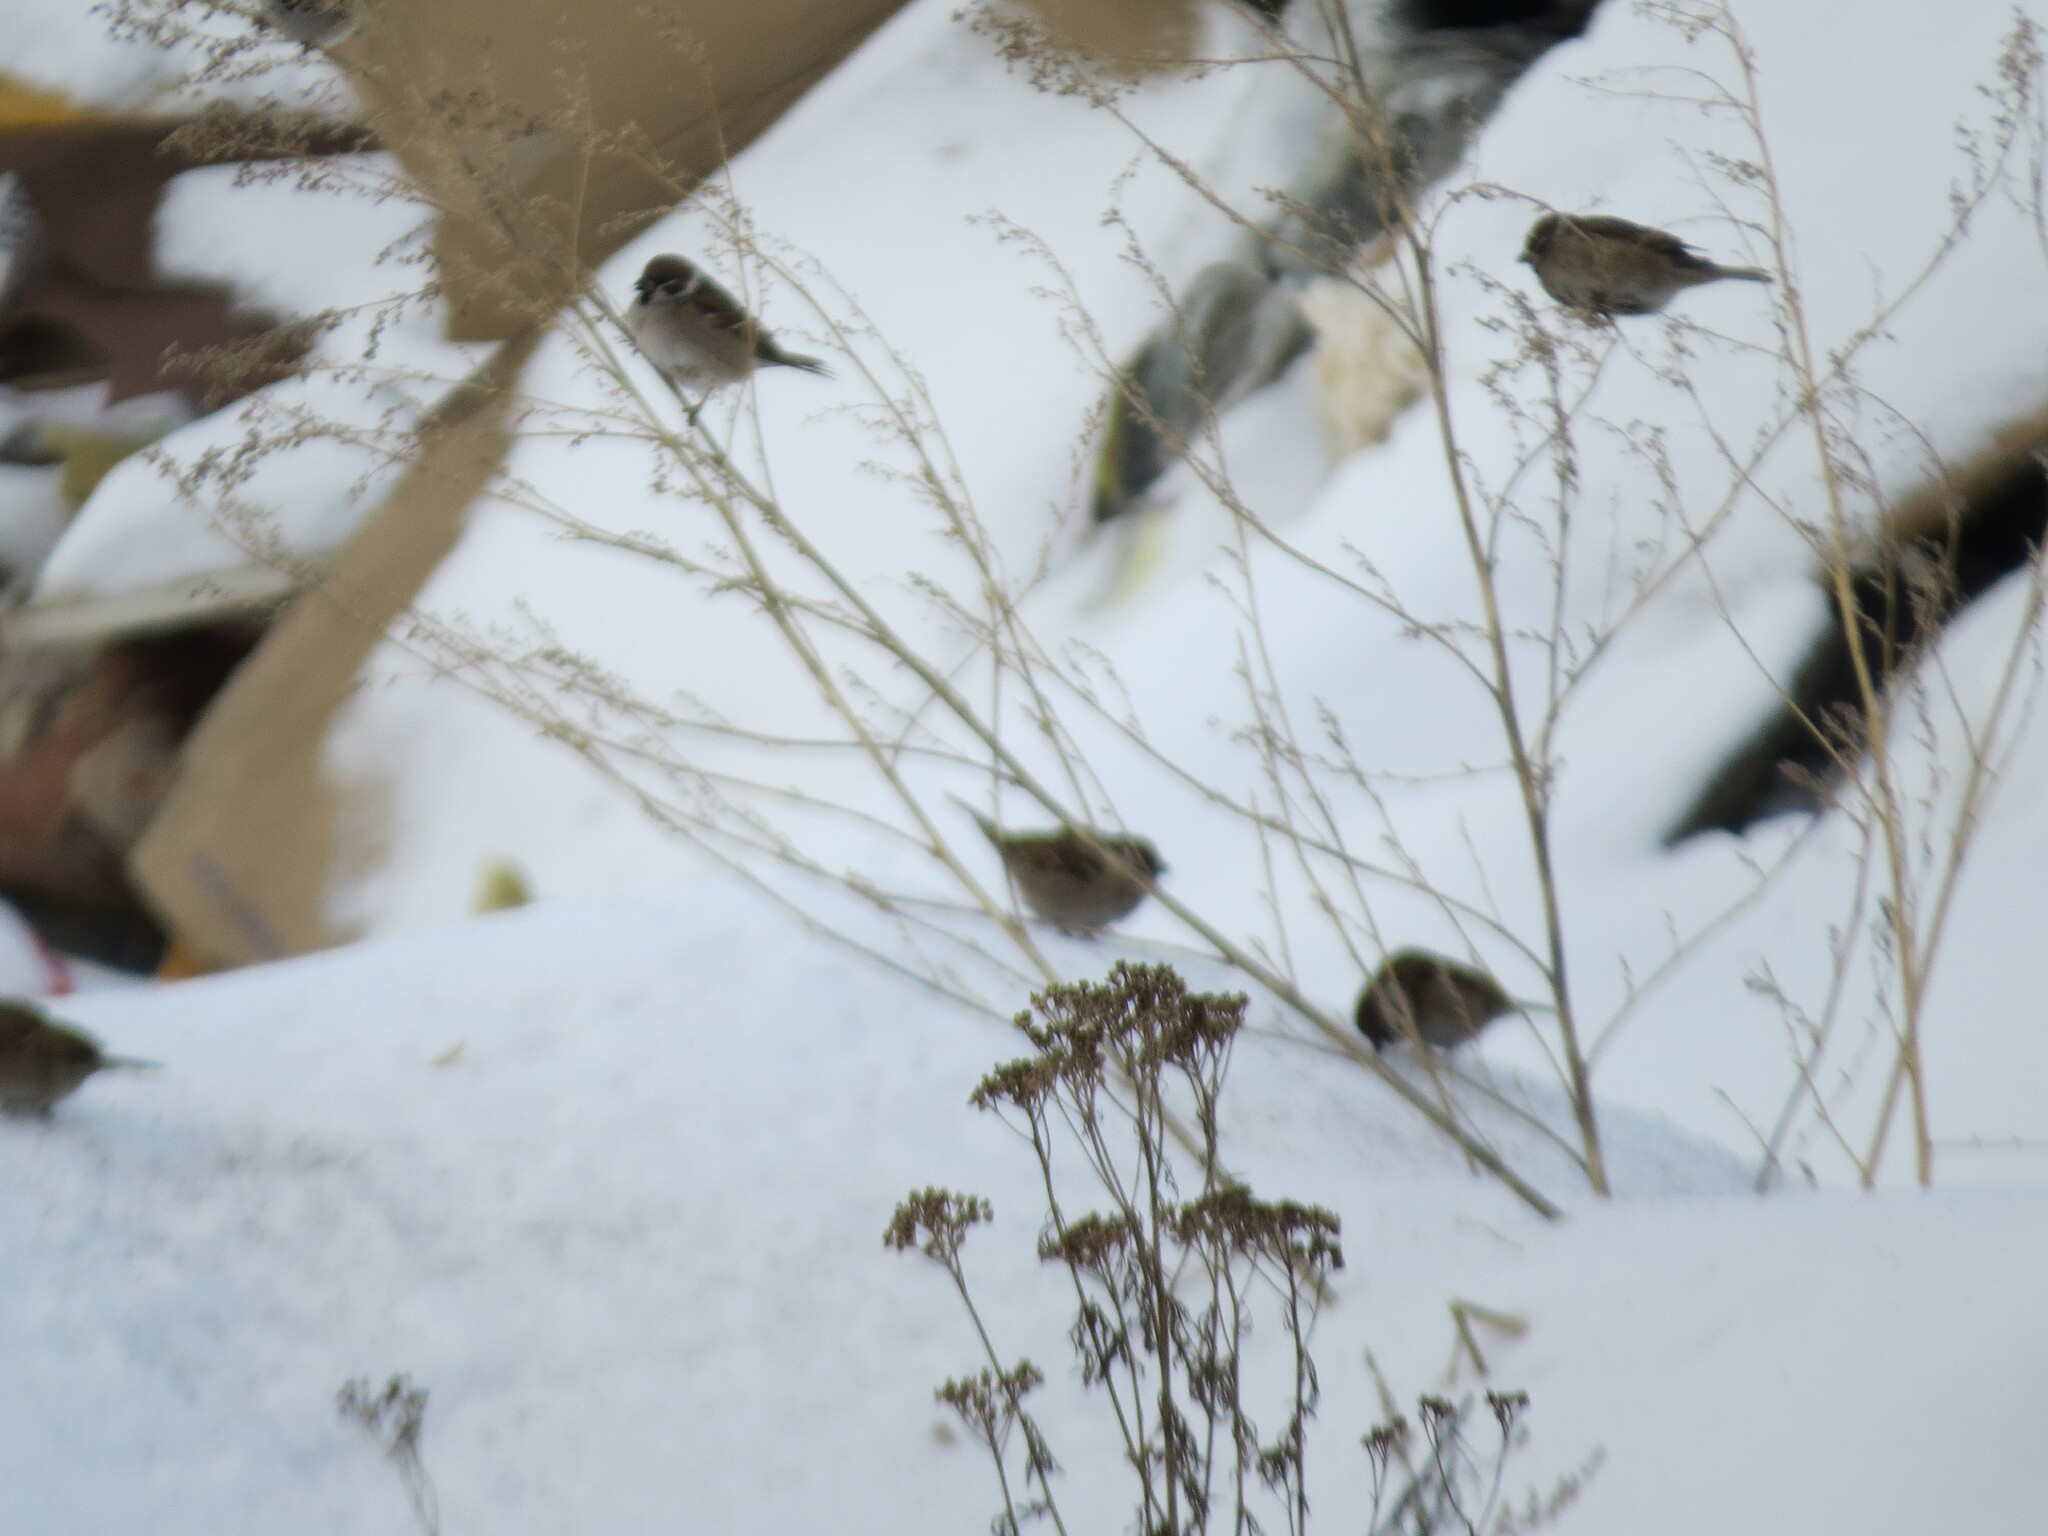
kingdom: Animalia
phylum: Chordata
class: Aves
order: Passeriformes
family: Passeridae
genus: Passer
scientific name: Passer montanus
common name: Eurasian tree sparrow
